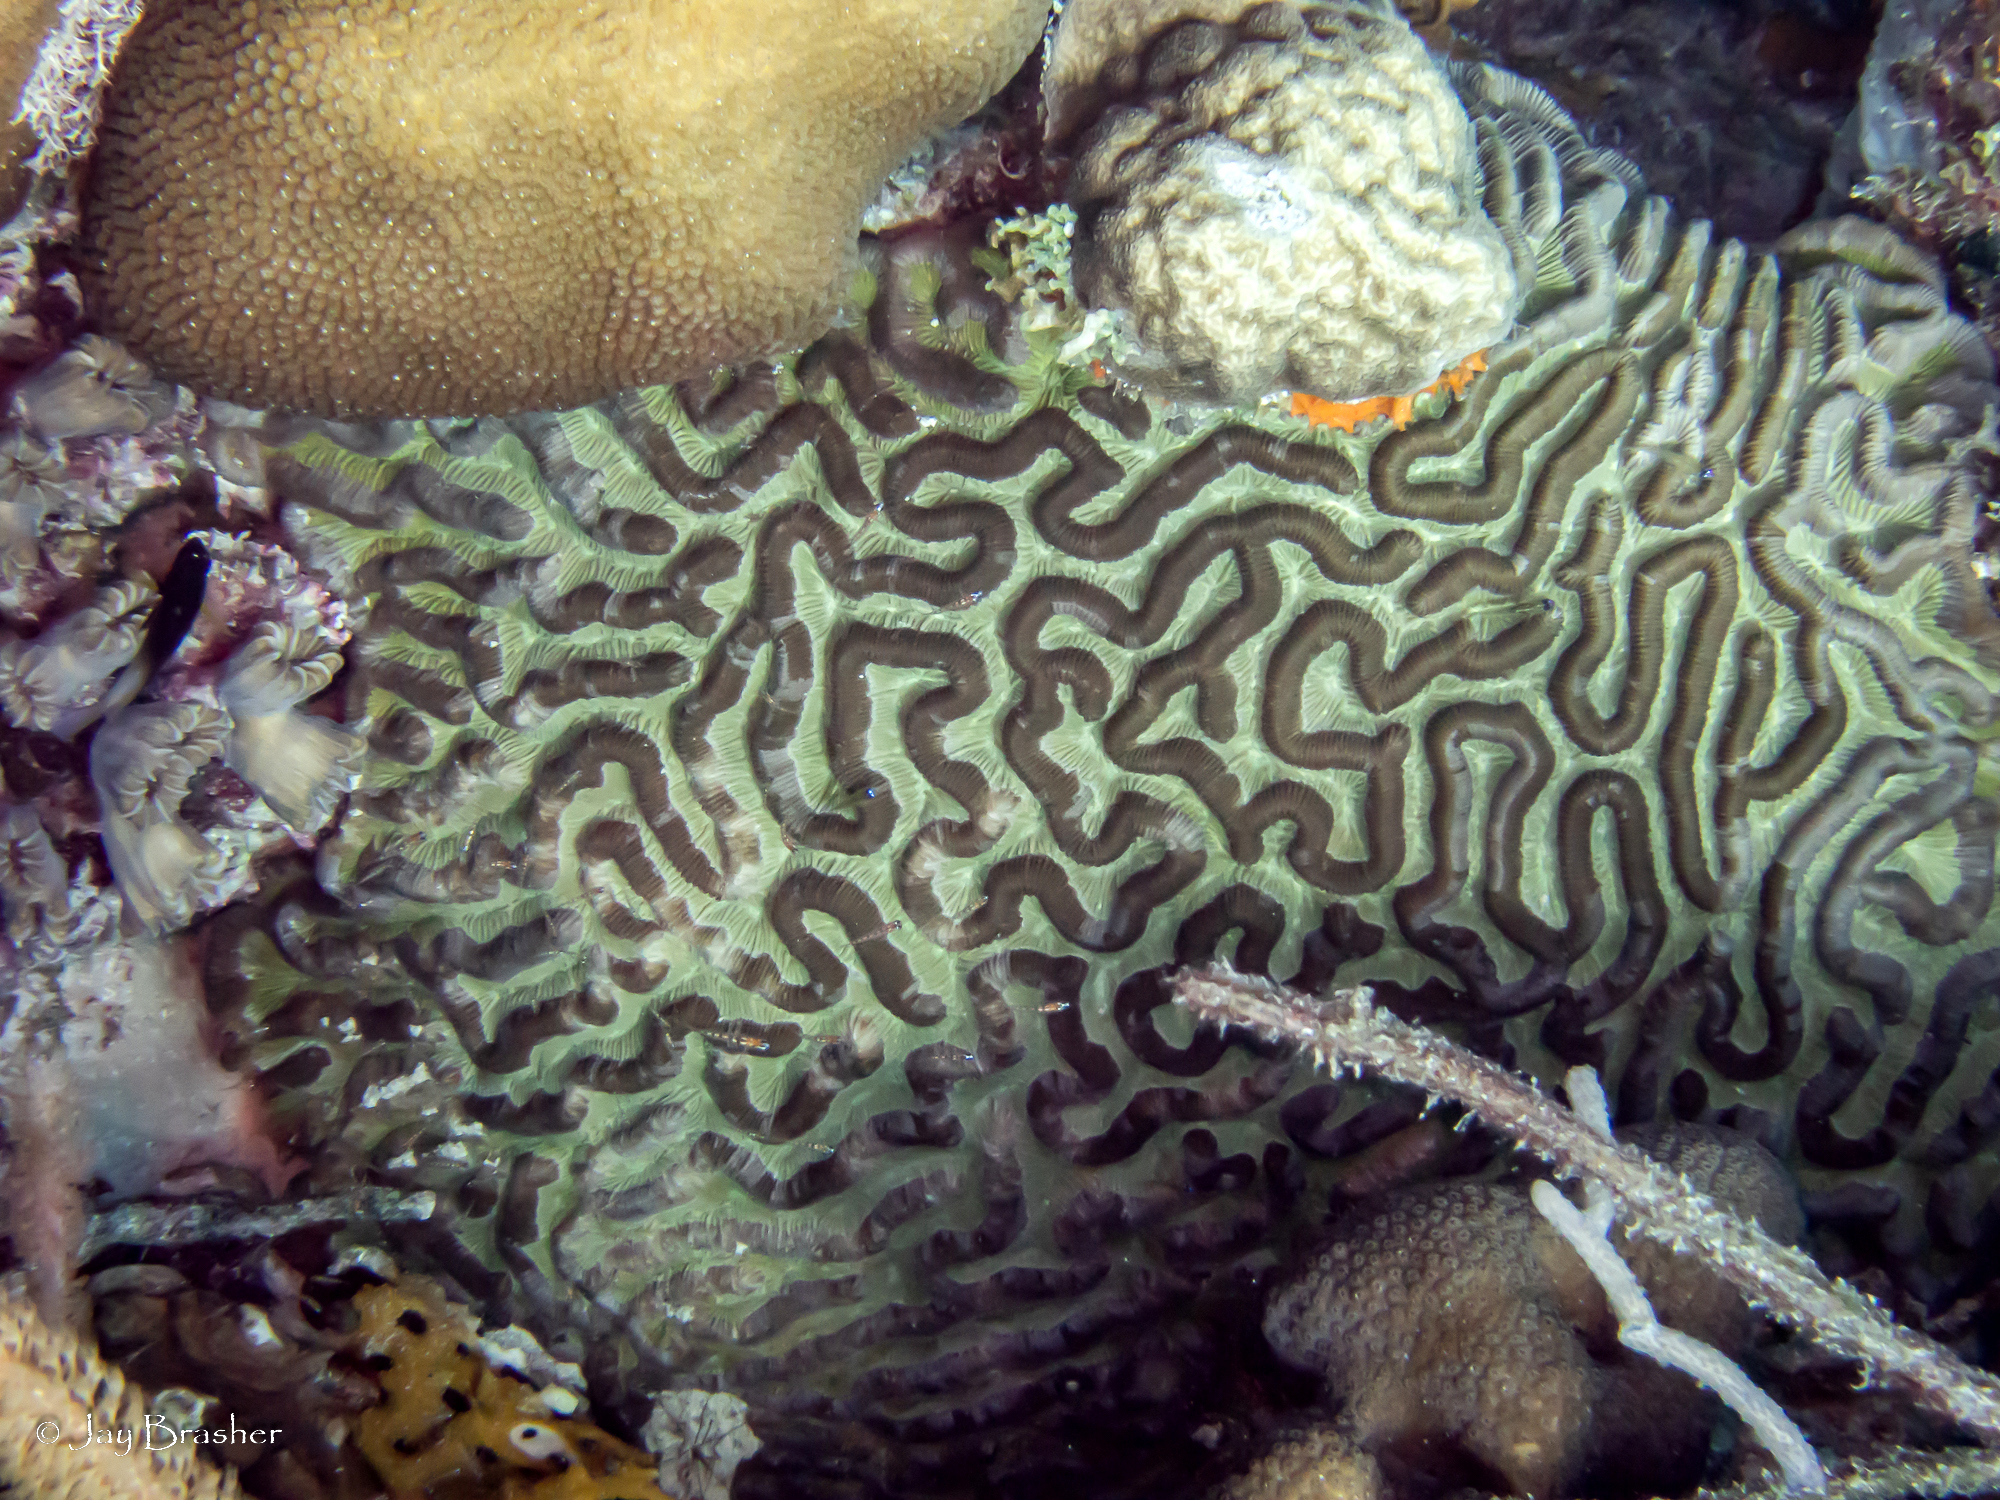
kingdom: Animalia
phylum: Cnidaria
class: Anthozoa
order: Scleractinia
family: Faviidae
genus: Colpophyllia
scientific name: Colpophyllia natans
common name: Boulder brain coral
